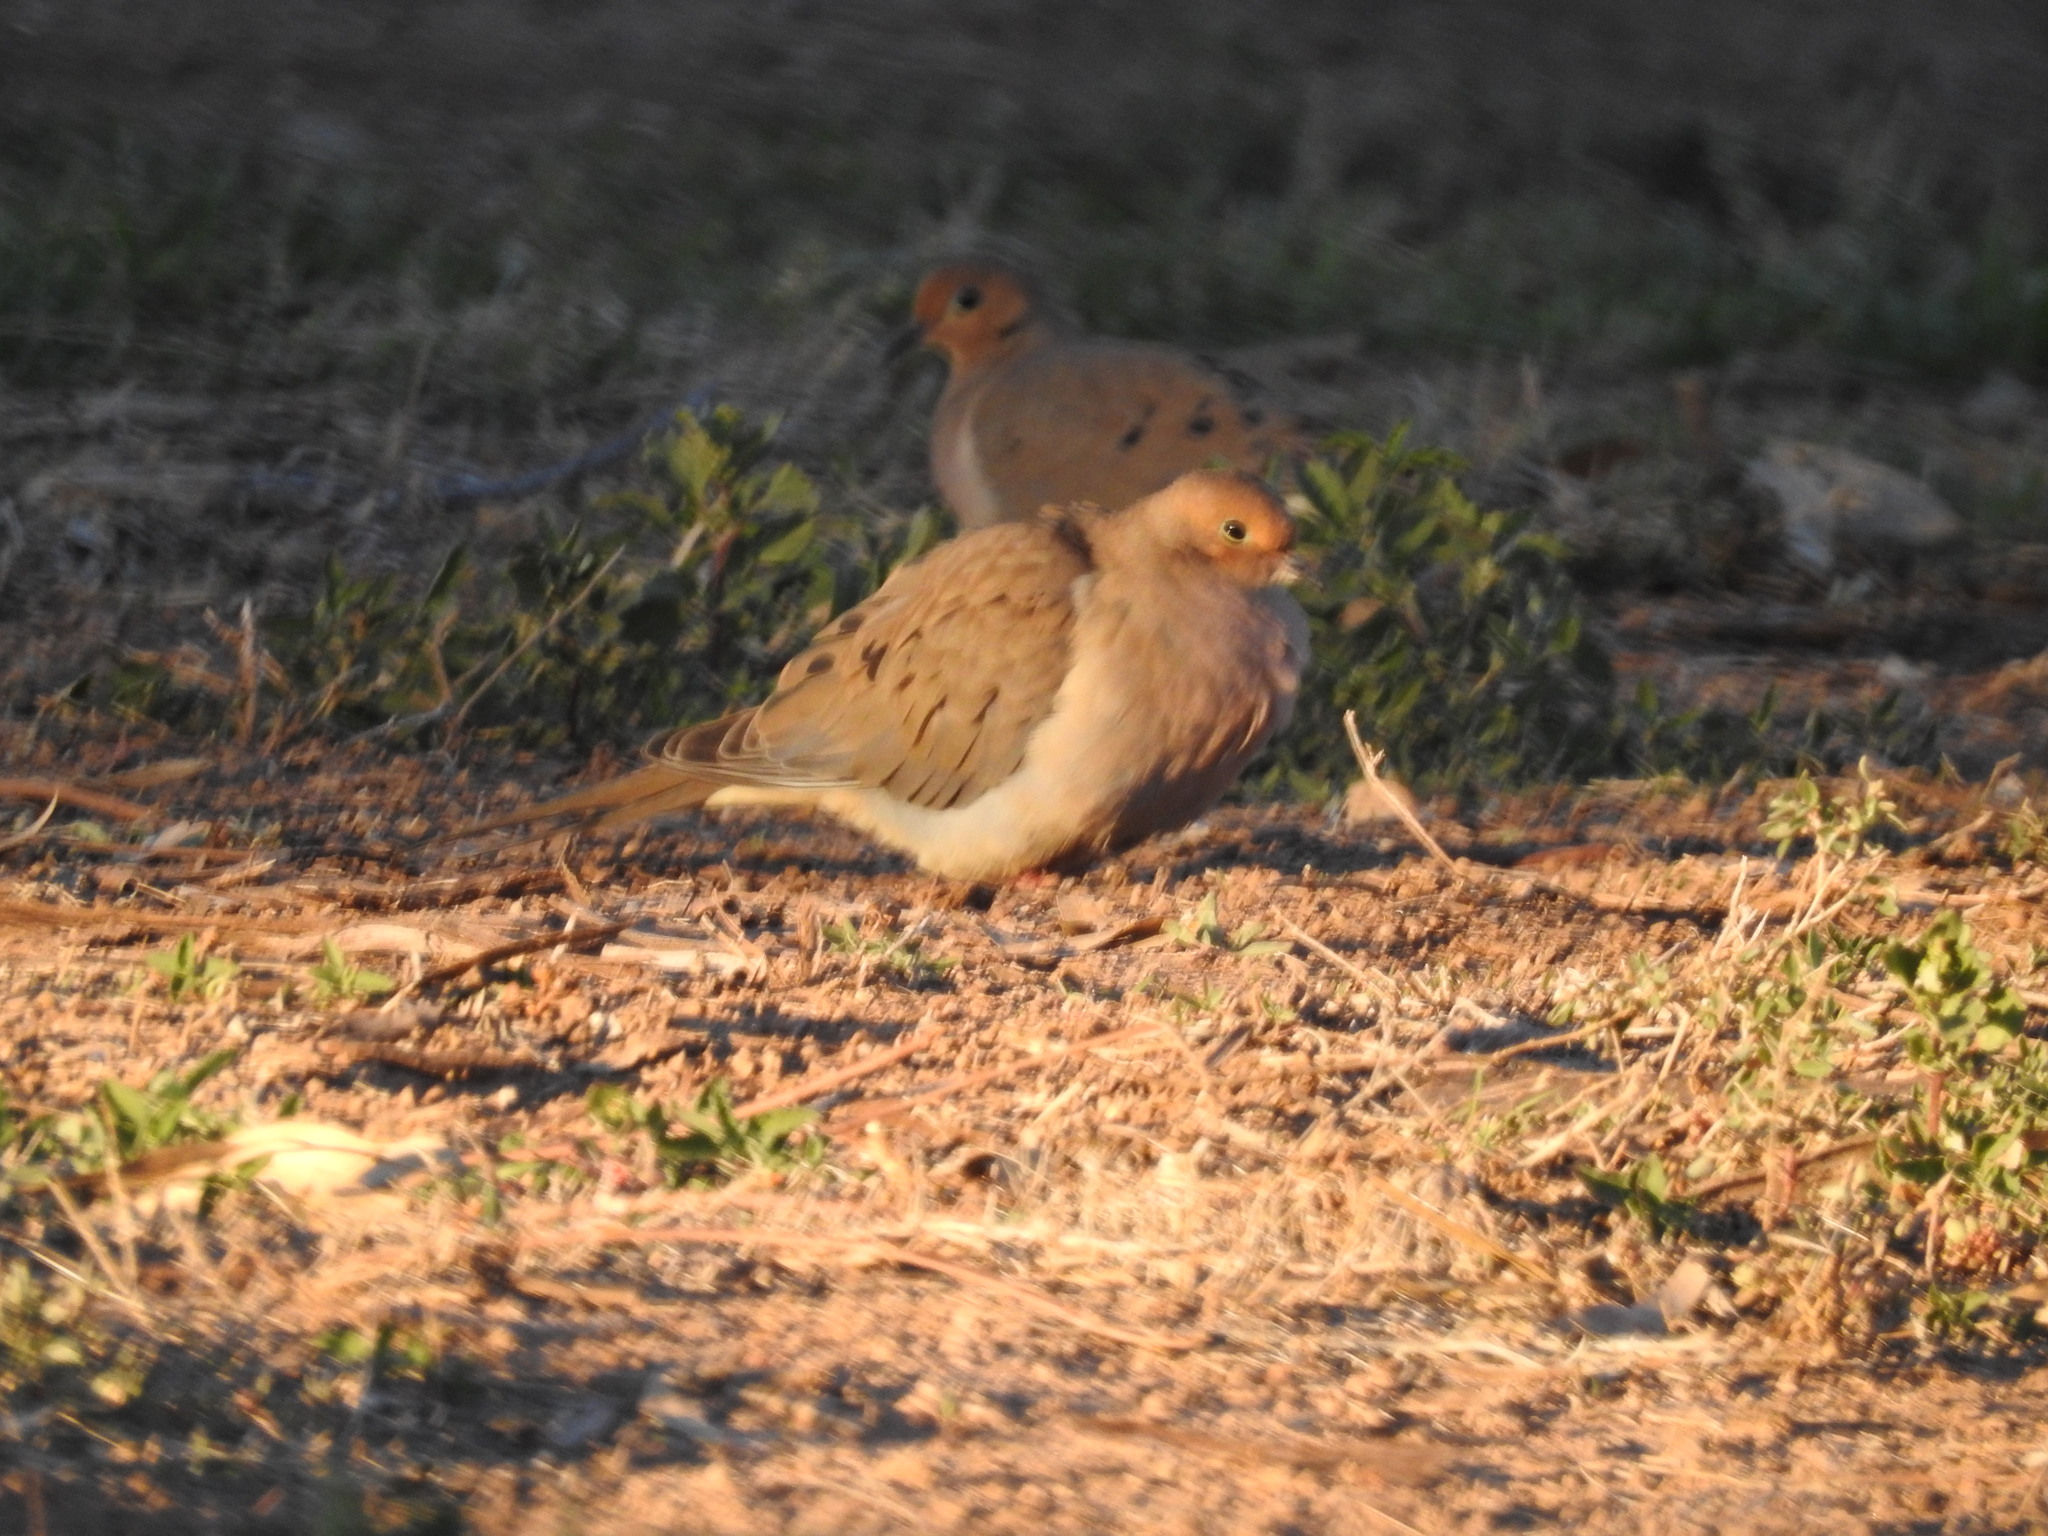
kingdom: Animalia
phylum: Chordata
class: Aves
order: Columbiformes
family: Columbidae
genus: Zenaida
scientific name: Zenaida macroura
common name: Mourning dove
